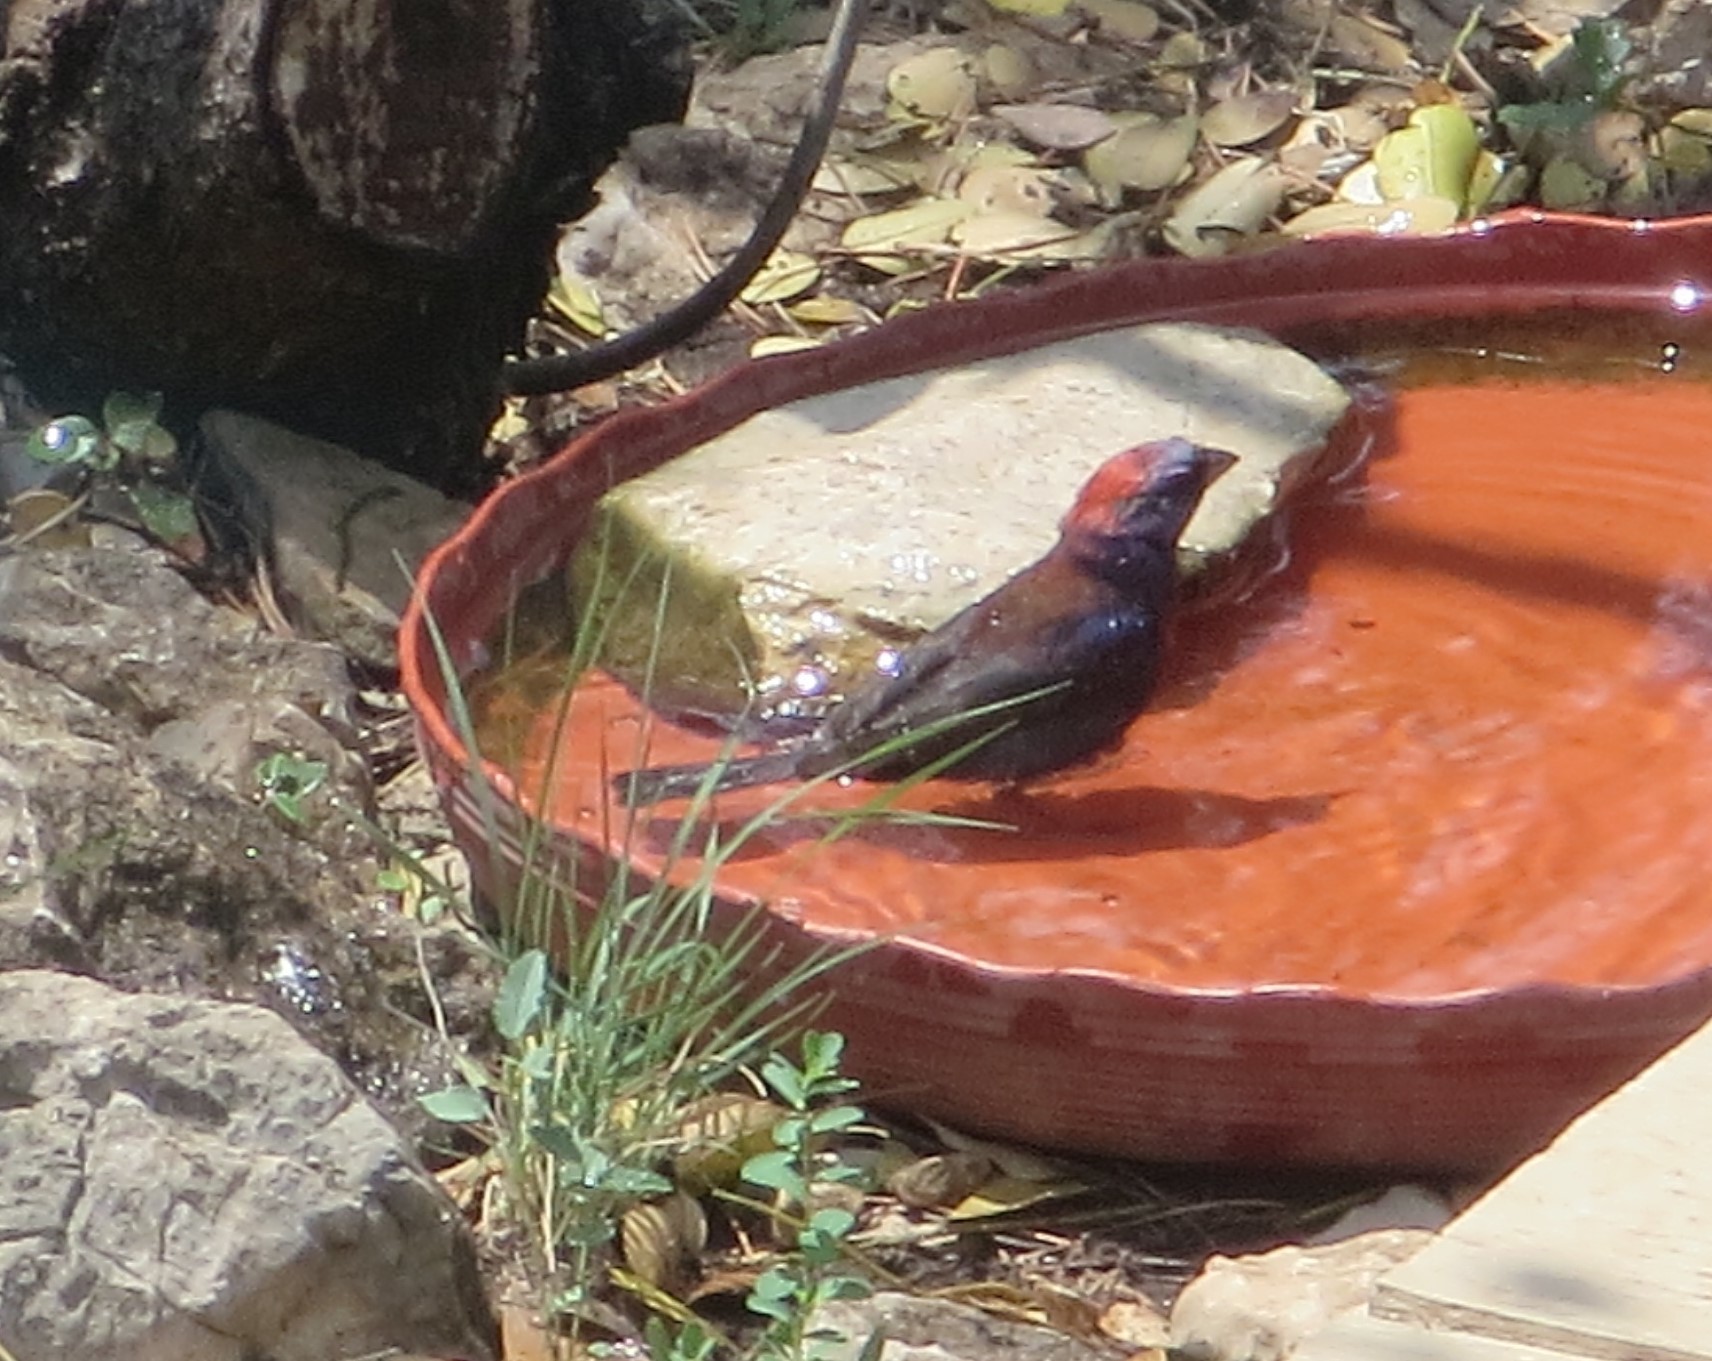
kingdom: Animalia
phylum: Chordata
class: Aves
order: Passeriformes
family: Cardinalidae
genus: Passerina
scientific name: Passerina versicolor
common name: Varied bunting
